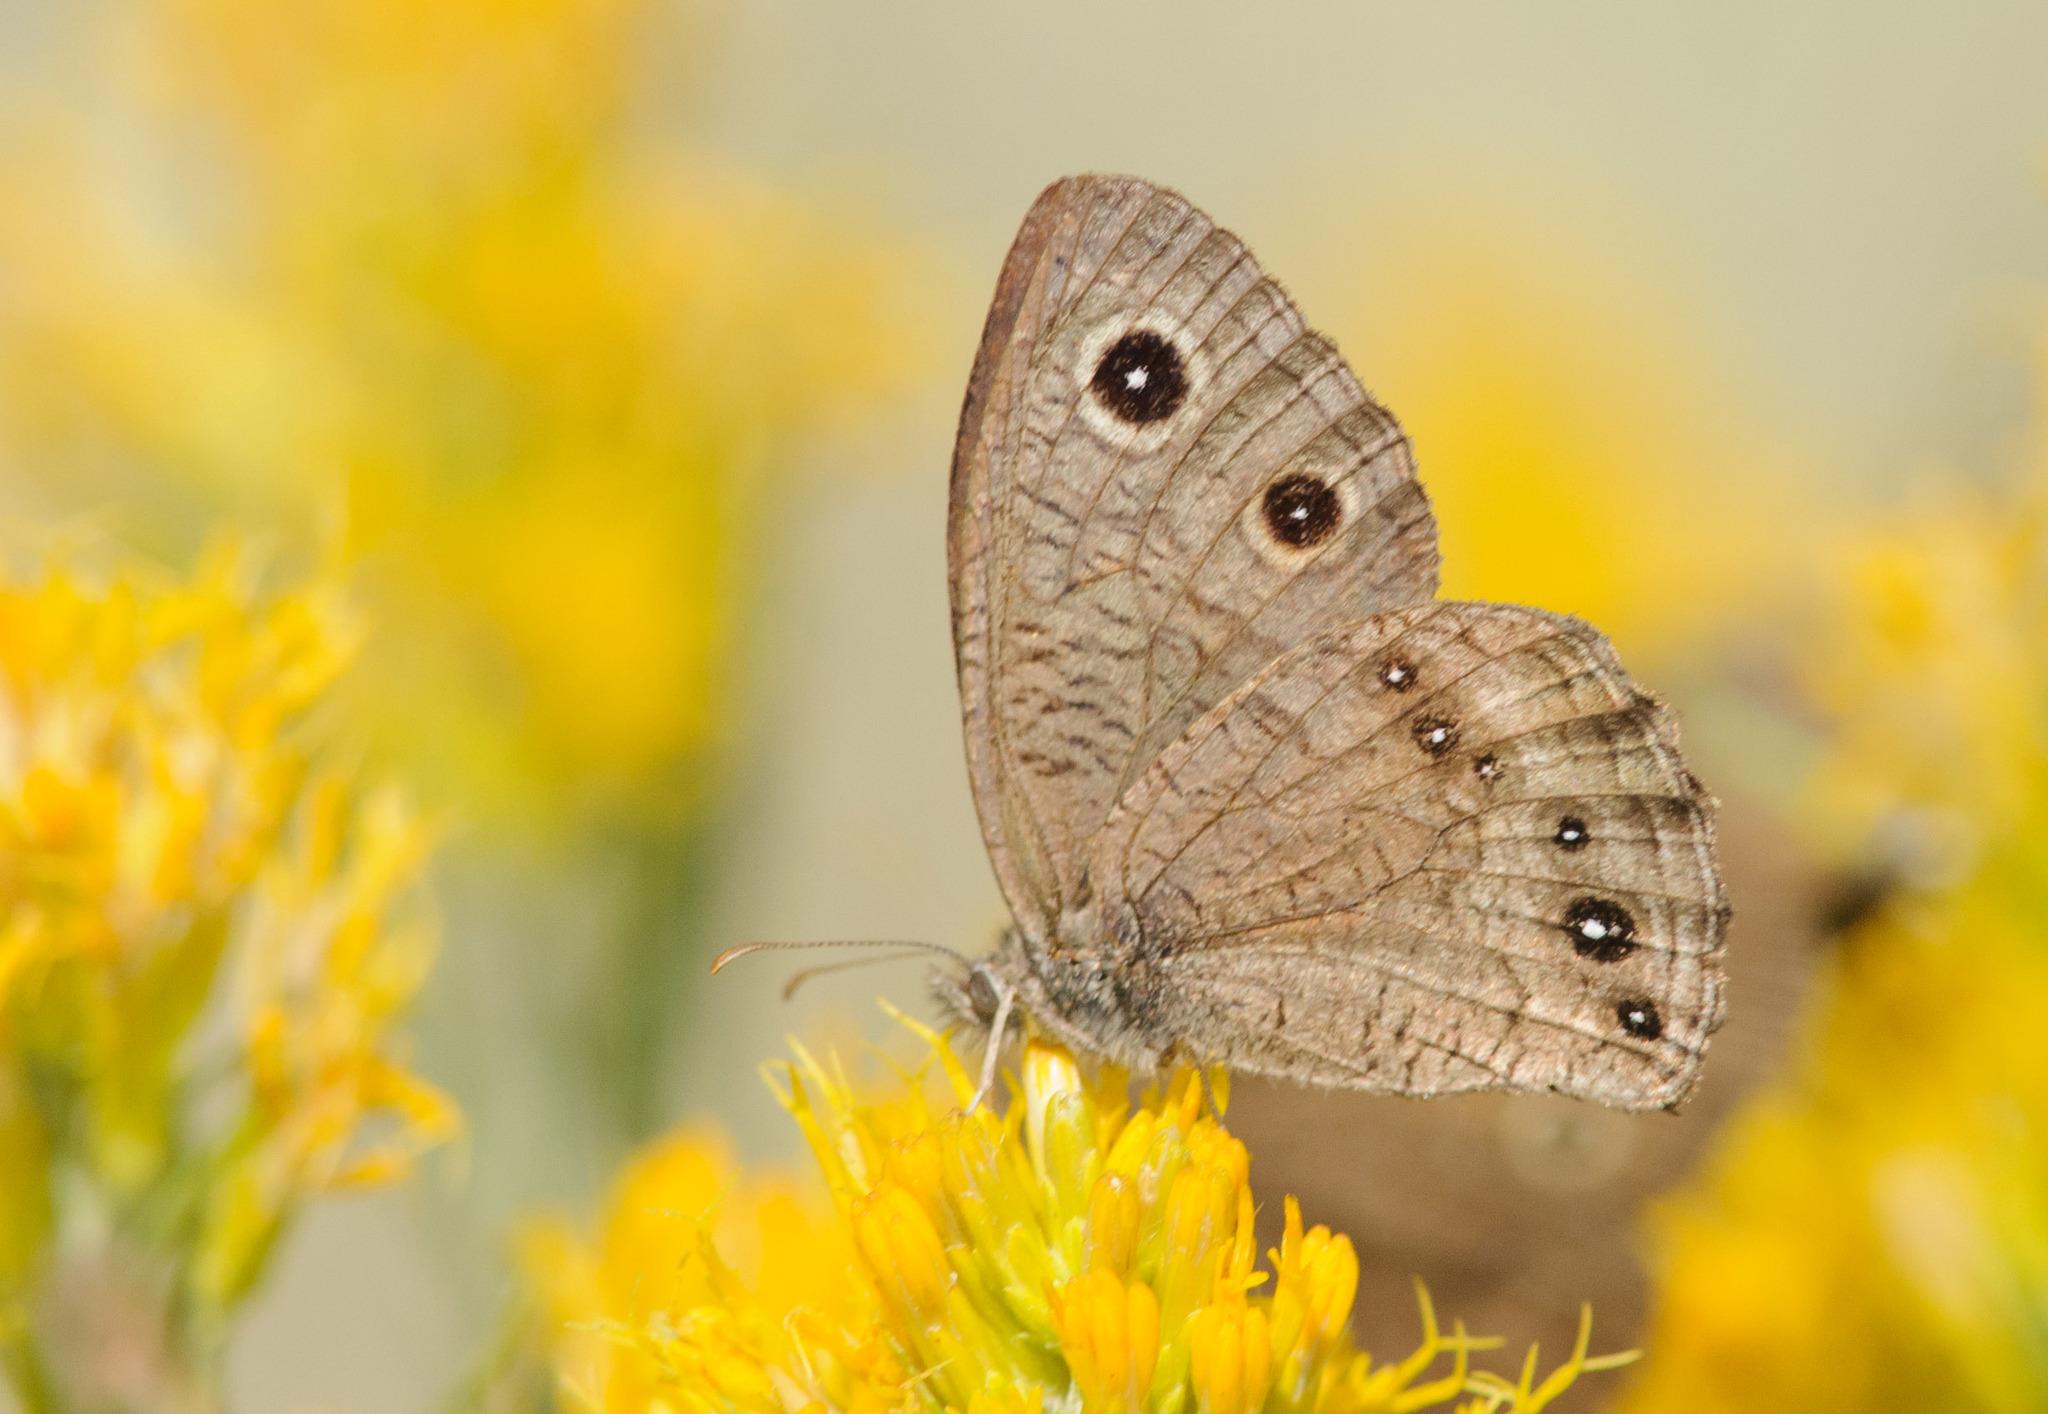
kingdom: Animalia
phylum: Arthropoda
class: Insecta
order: Lepidoptera
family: Nymphalidae
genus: Cercyonis
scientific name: Cercyonis sthenele
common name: Great basin wood-nymph
